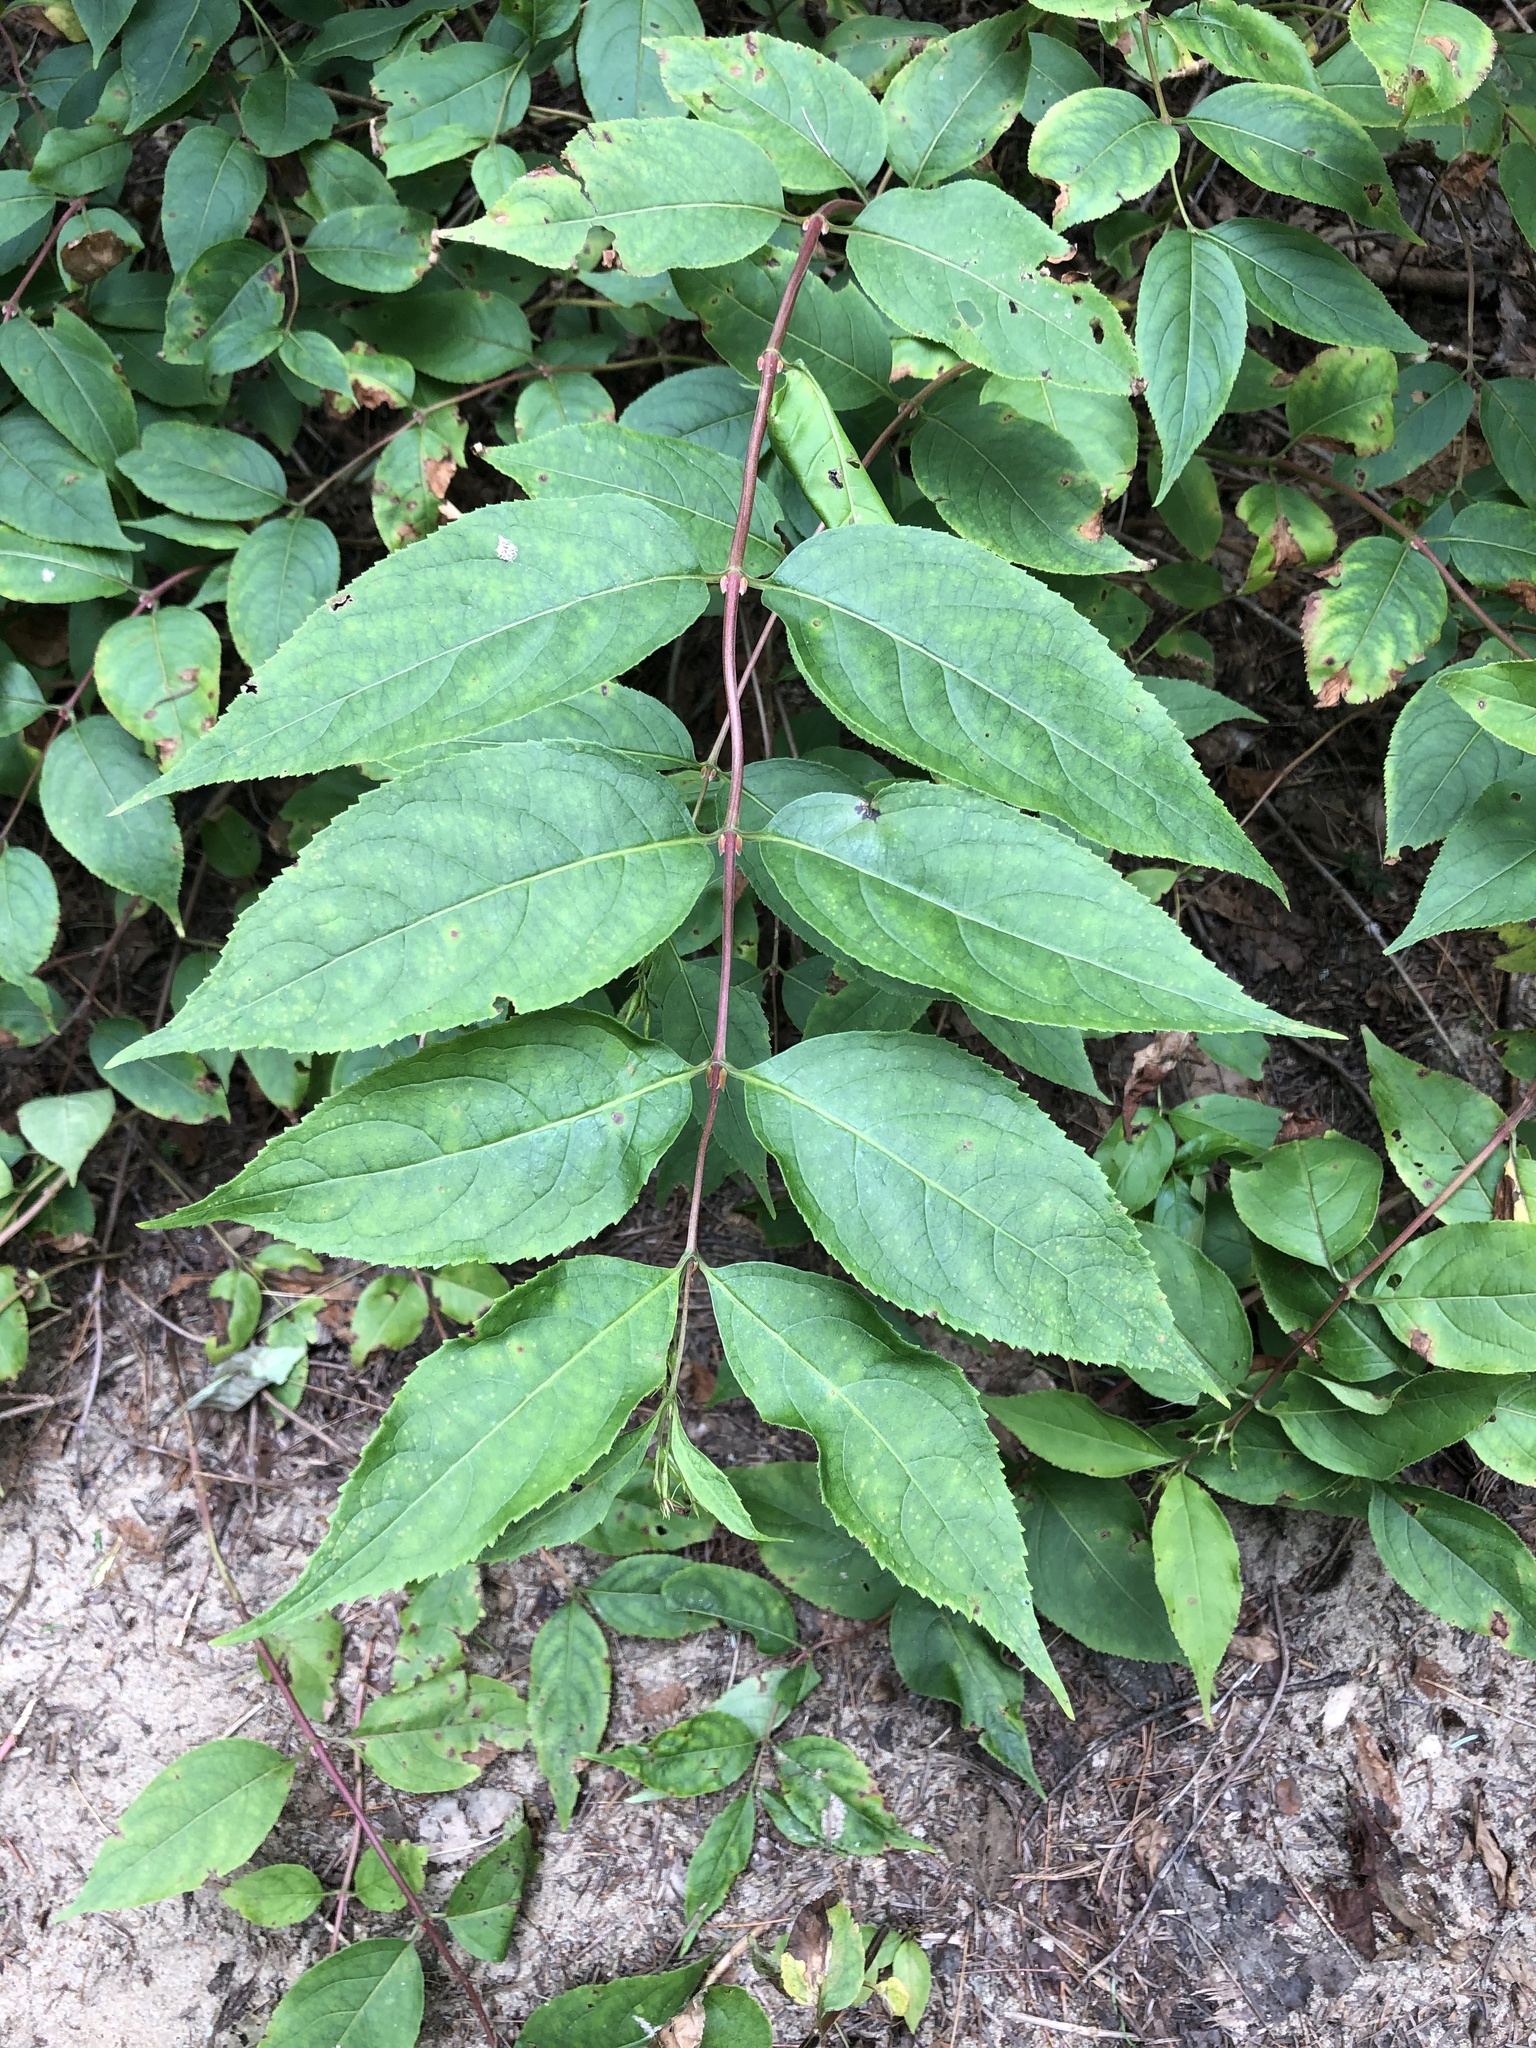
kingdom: Plantae
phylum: Tracheophyta
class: Magnoliopsida
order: Dipsacales
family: Caprifoliaceae
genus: Diervilla
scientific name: Diervilla lonicera
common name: Bush-honeysuckle
